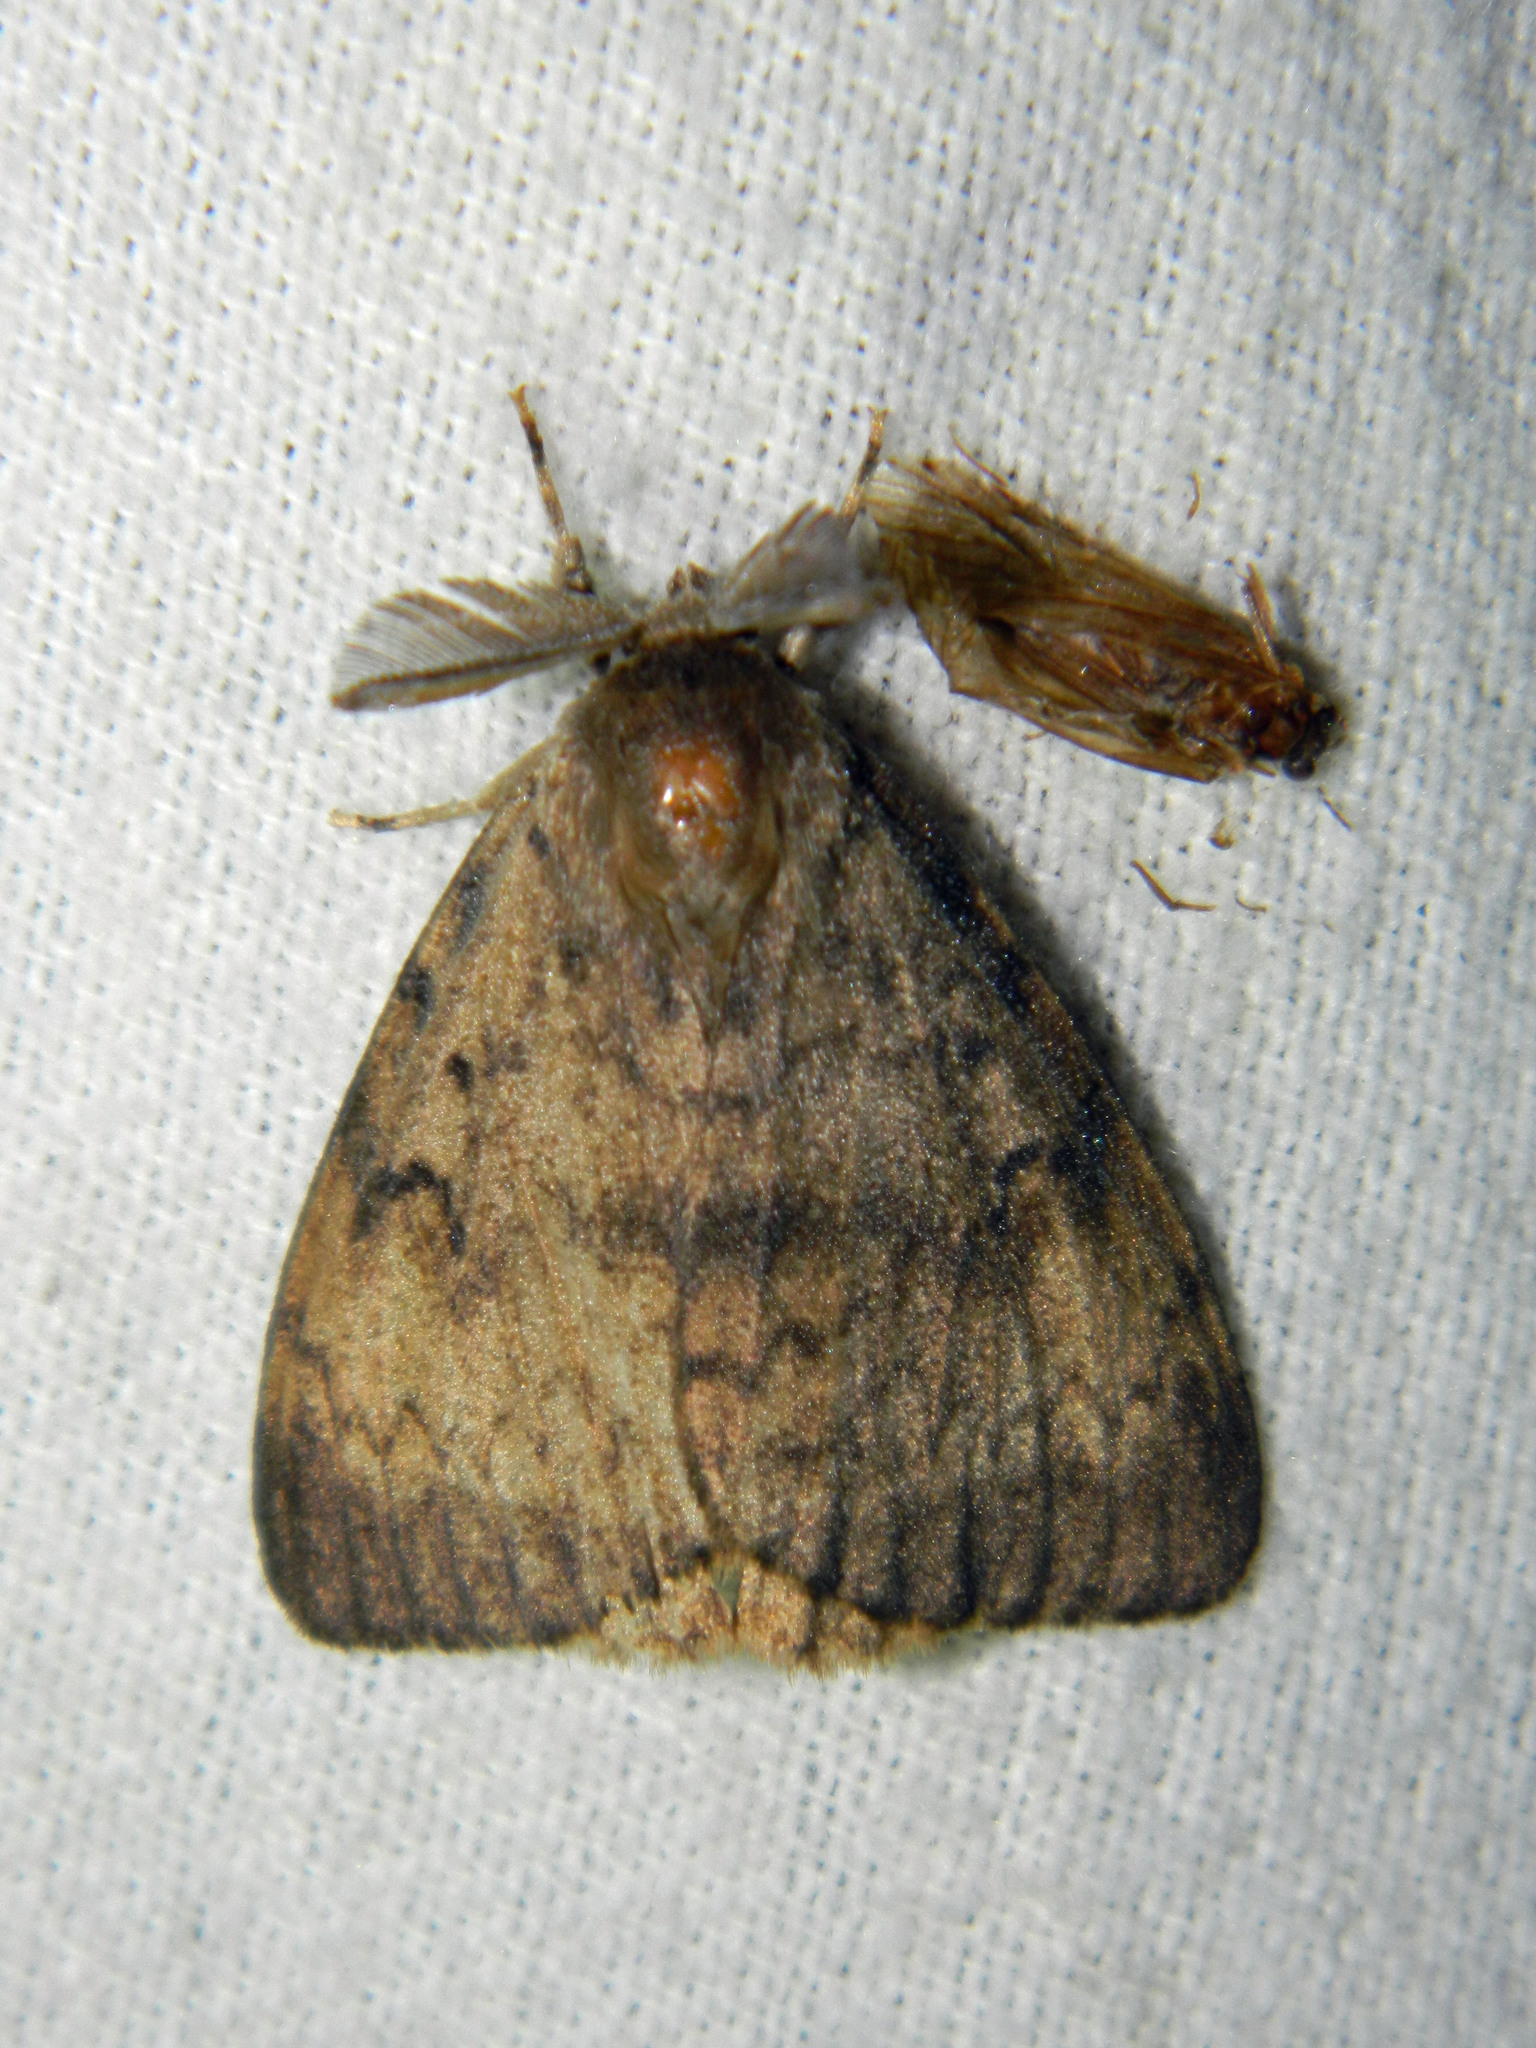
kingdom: Animalia
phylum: Arthropoda
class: Insecta
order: Lepidoptera
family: Erebidae
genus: Lymantria
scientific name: Lymantria dispar
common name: Gypsy moth
